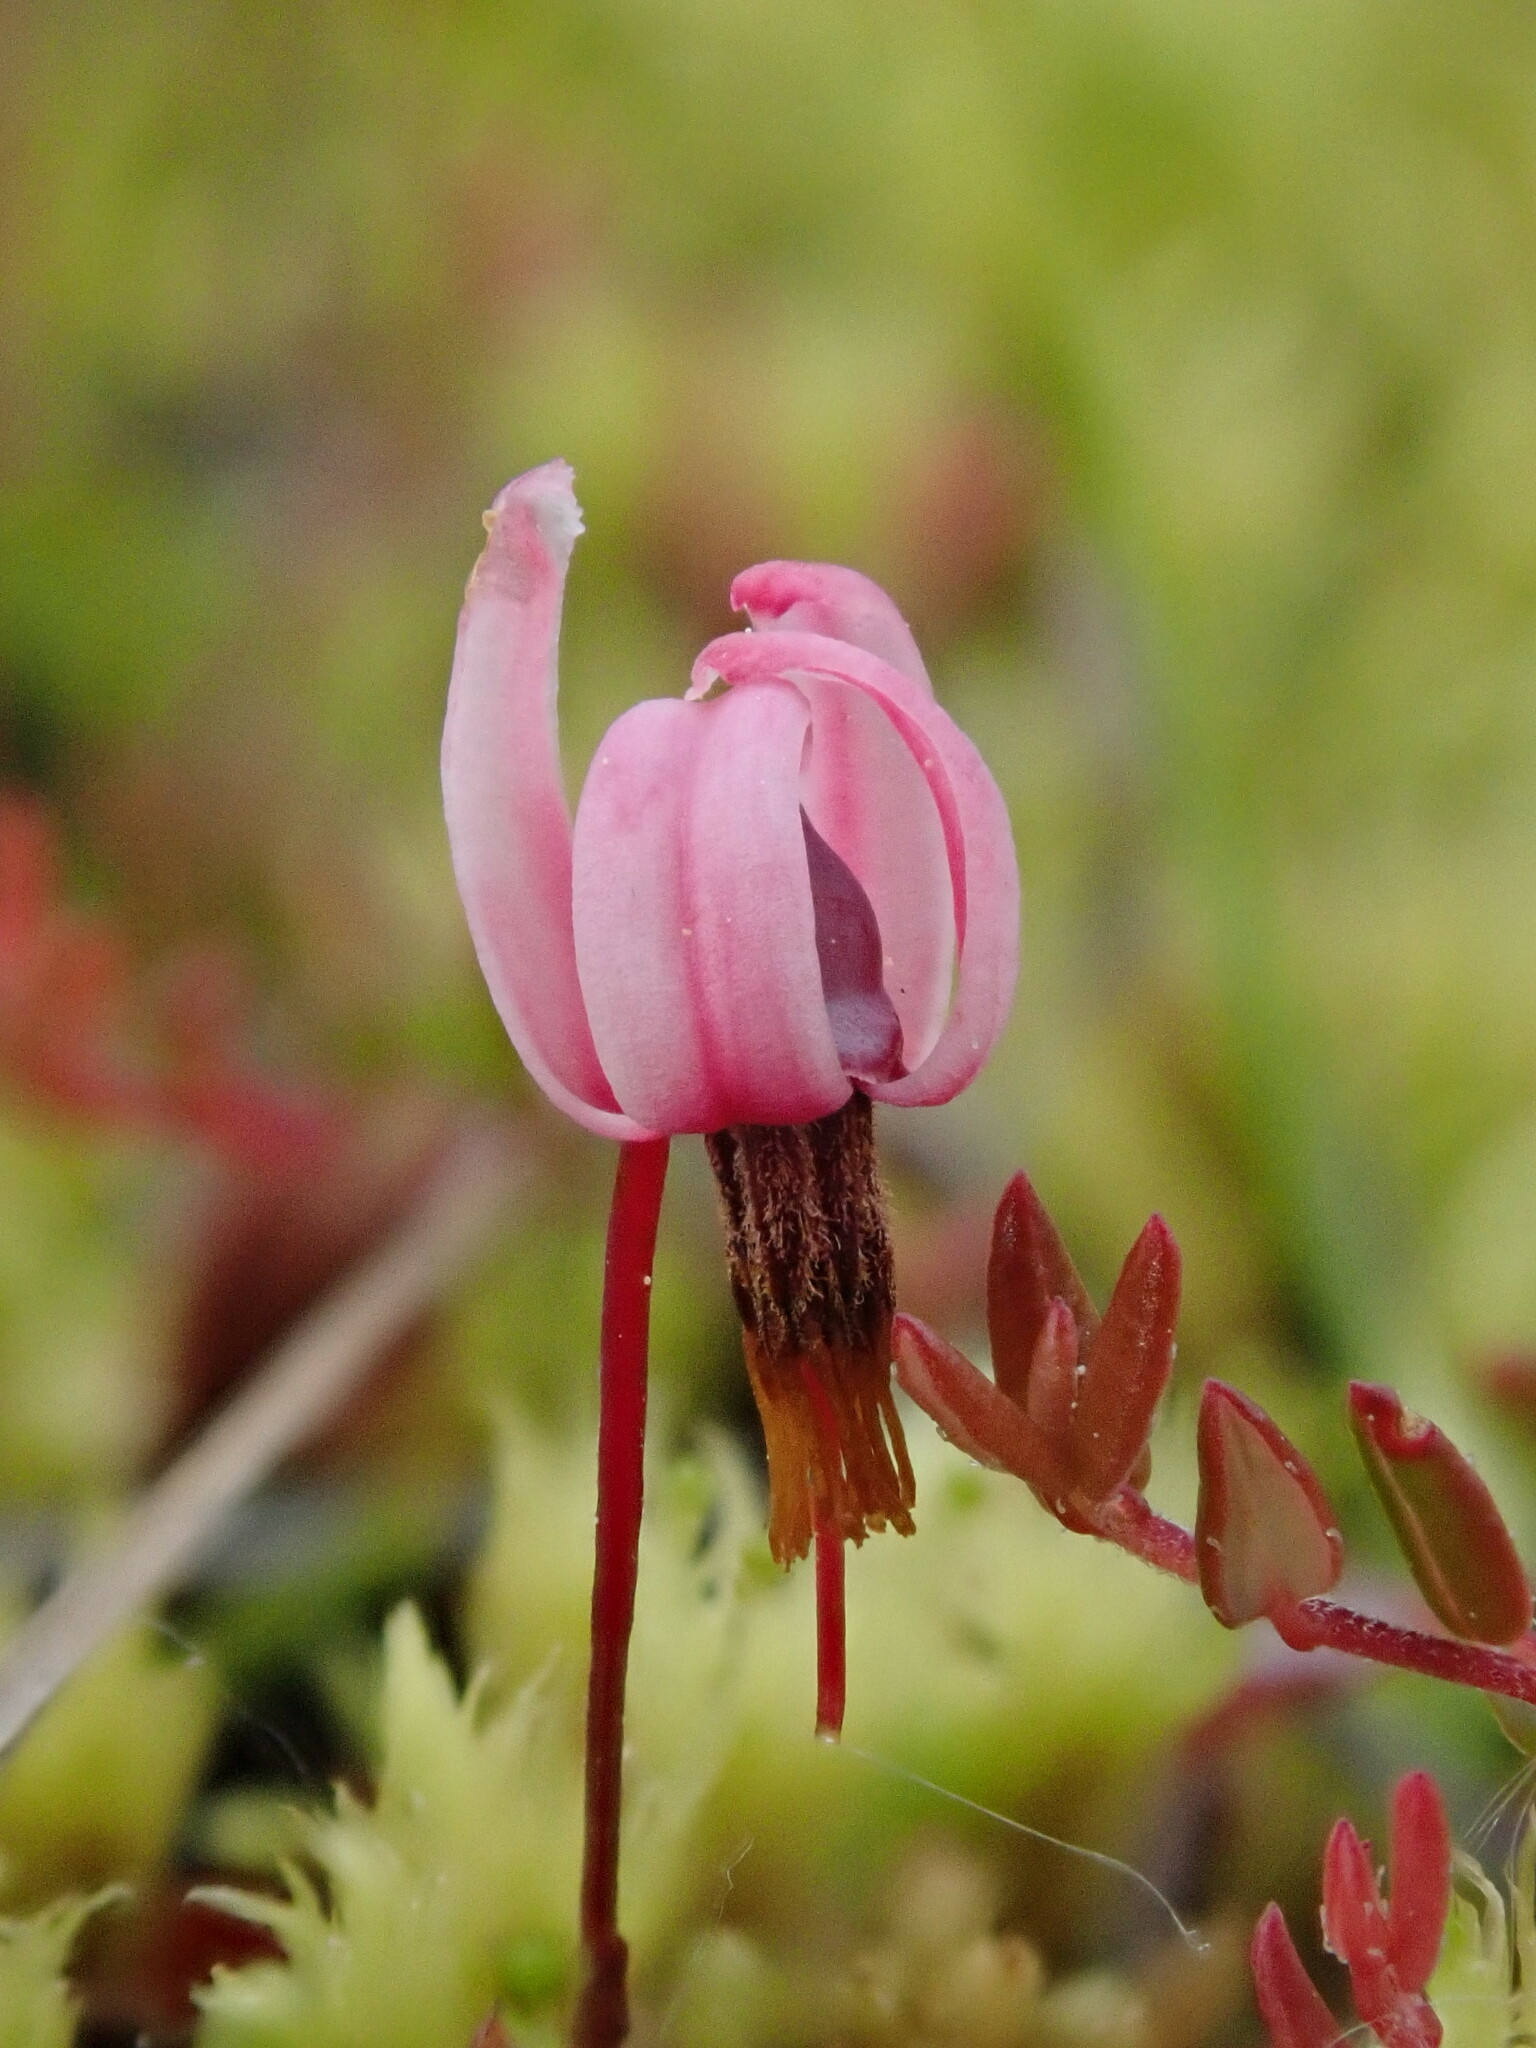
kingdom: Plantae
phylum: Tracheophyta
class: Magnoliopsida
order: Ericales
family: Ericaceae
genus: Vaccinium
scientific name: Vaccinium microcarpum
